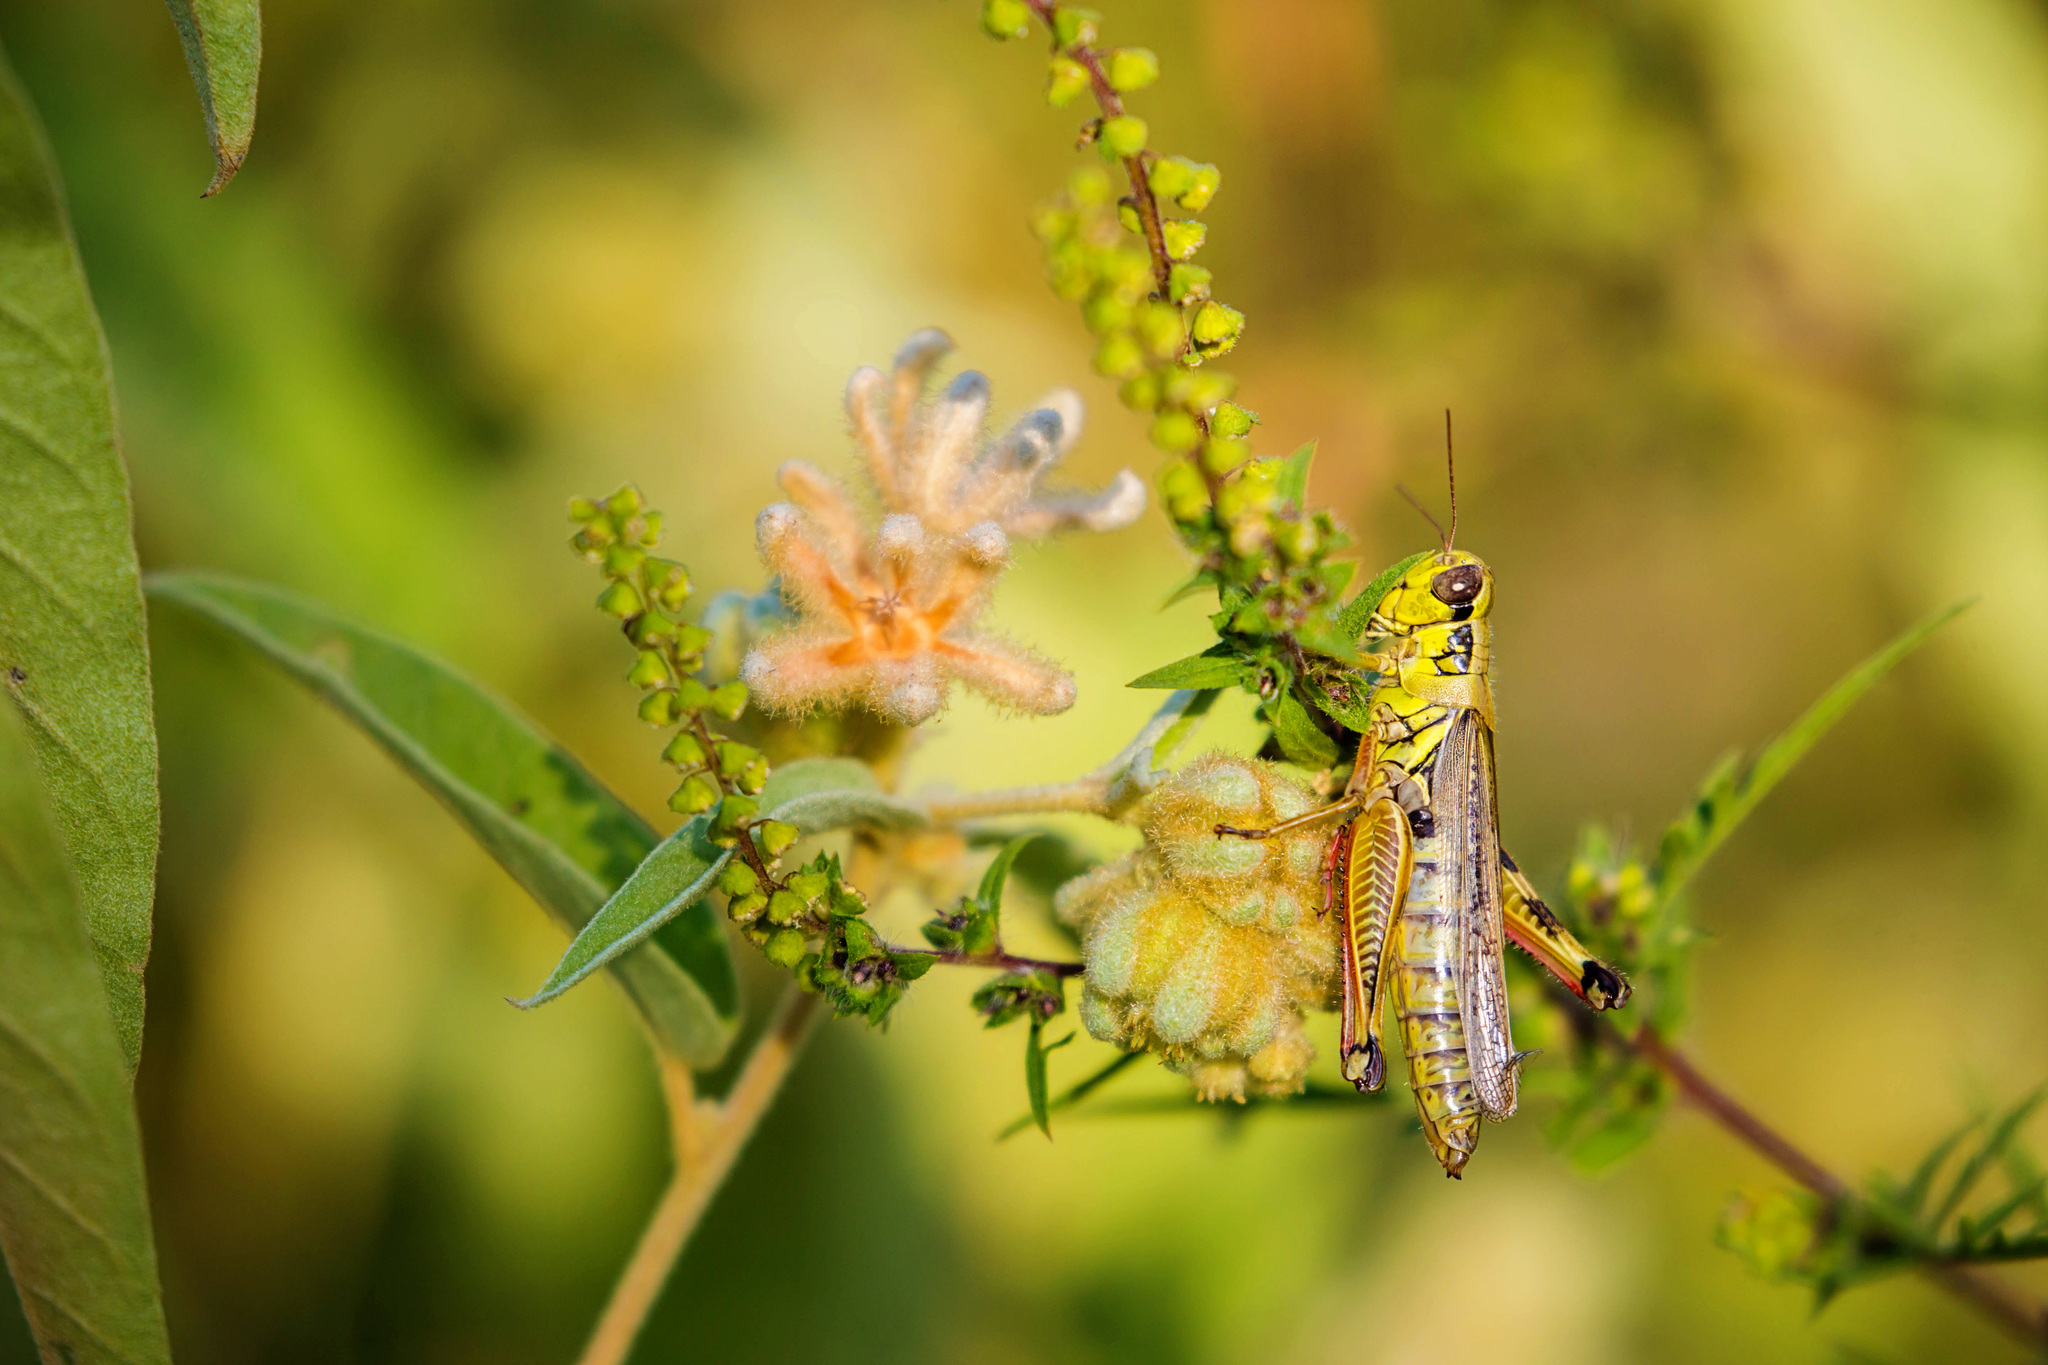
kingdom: Animalia
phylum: Arthropoda
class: Insecta
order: Orthoptera
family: Acrididae
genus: Melanoplus
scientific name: Melanoplus femurrubrum
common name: Red-legged grasshopper
